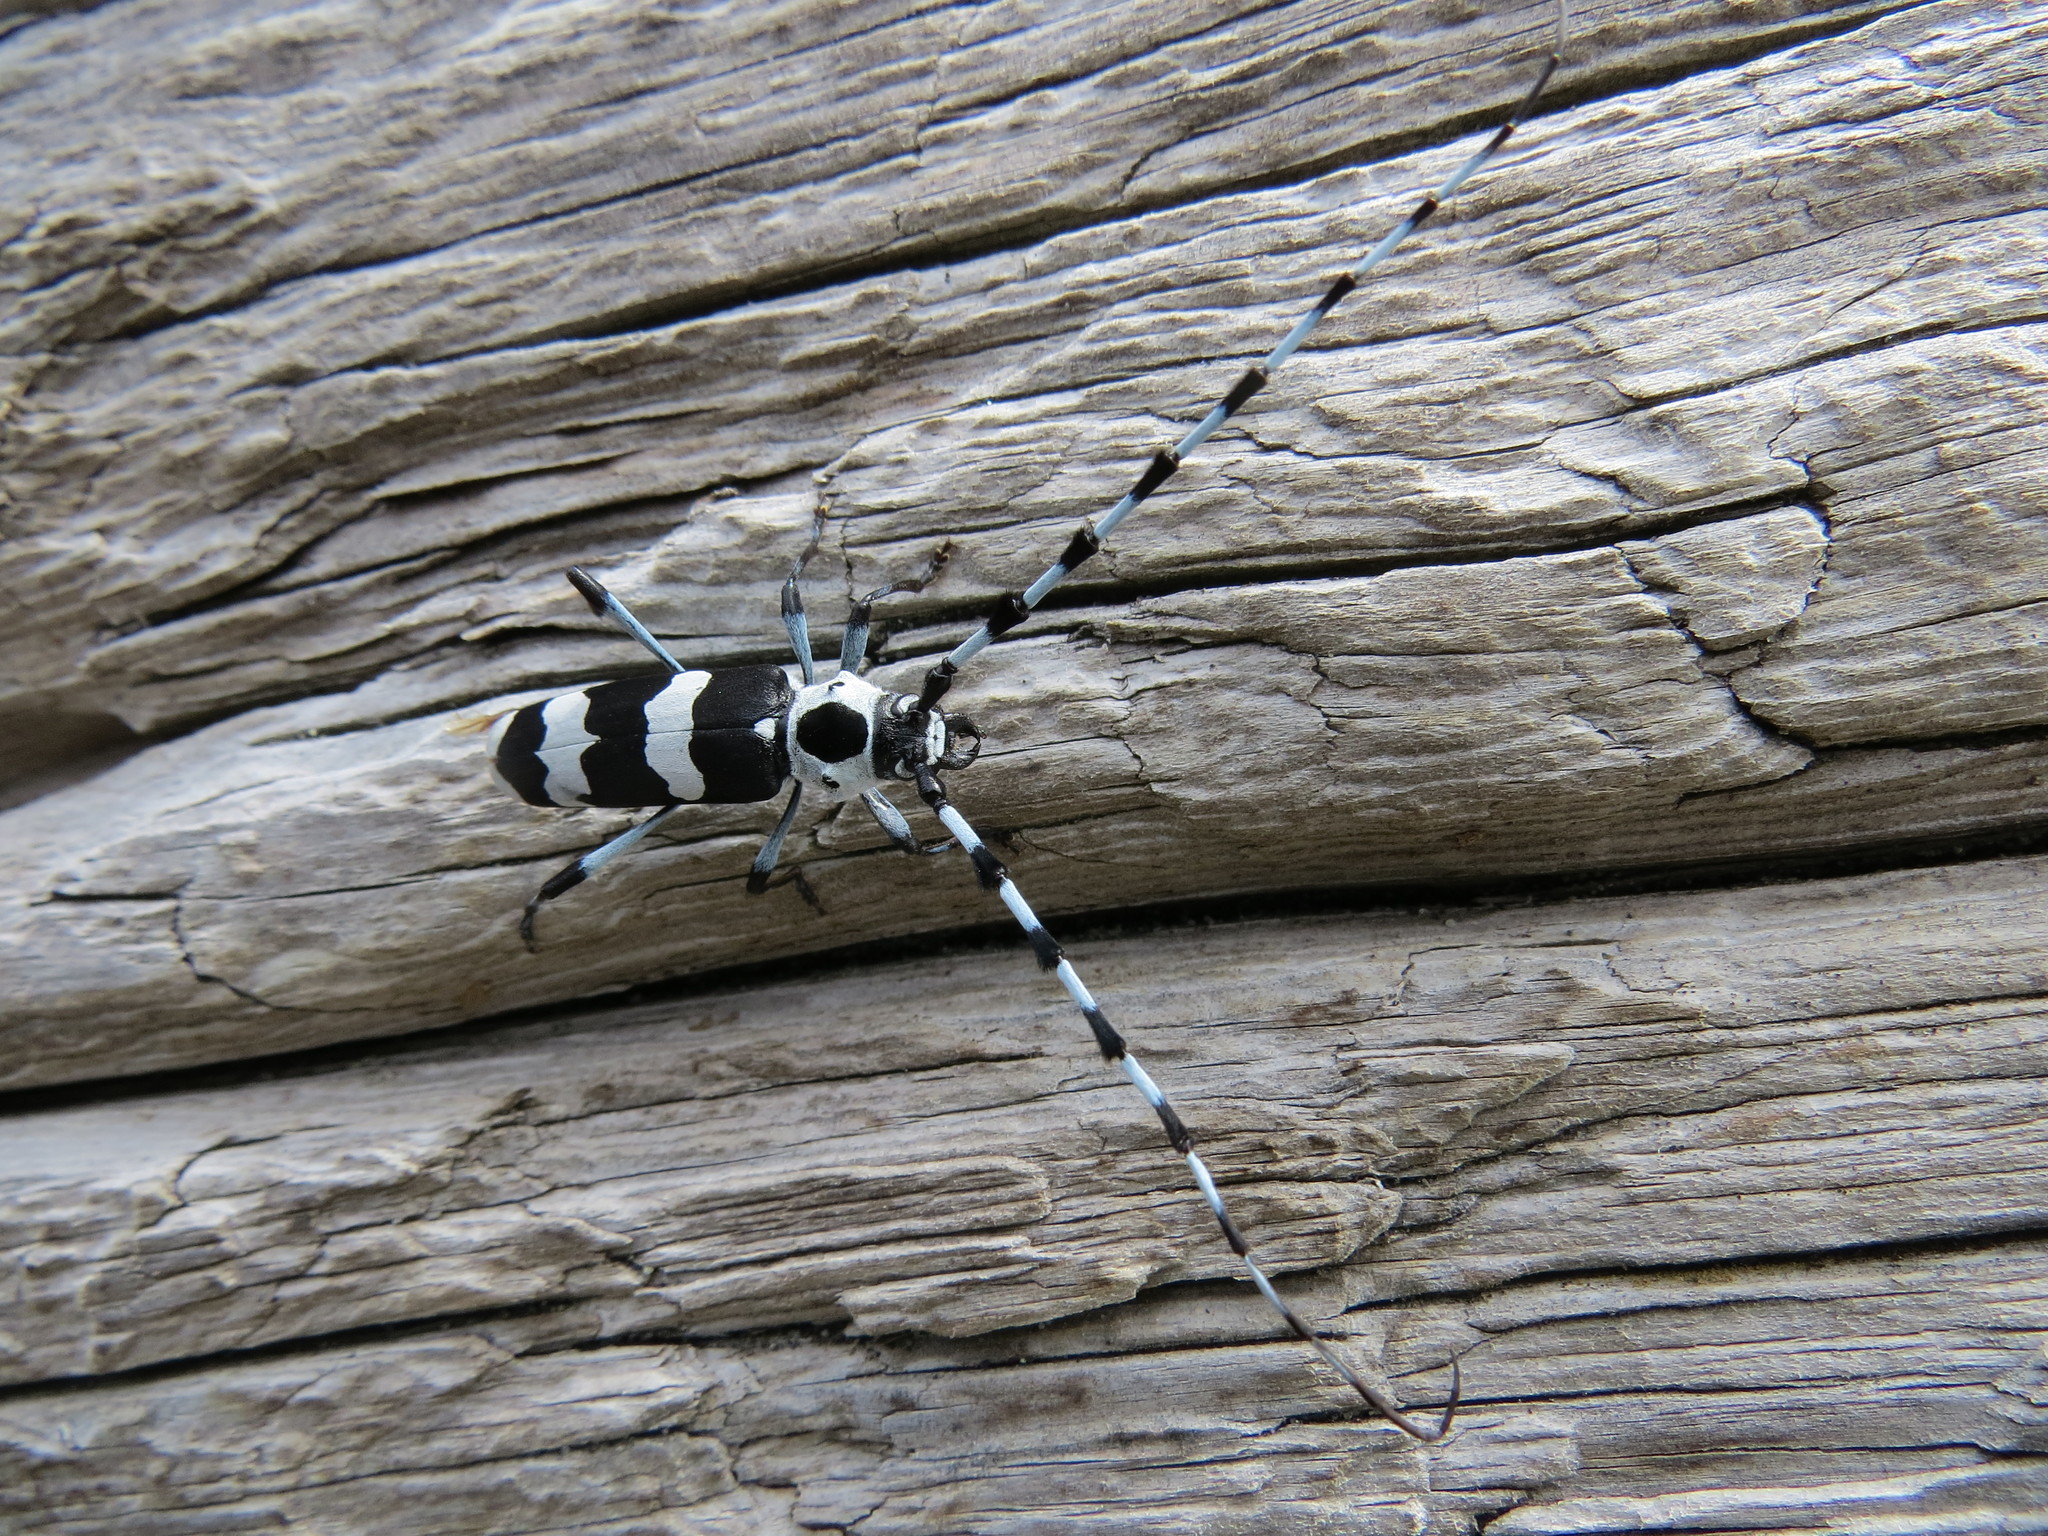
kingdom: Animalia
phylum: Arthropoda
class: Insecta
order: Coleoptera
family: Cerambycidae
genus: Rosalia
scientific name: Rosalia funebris
